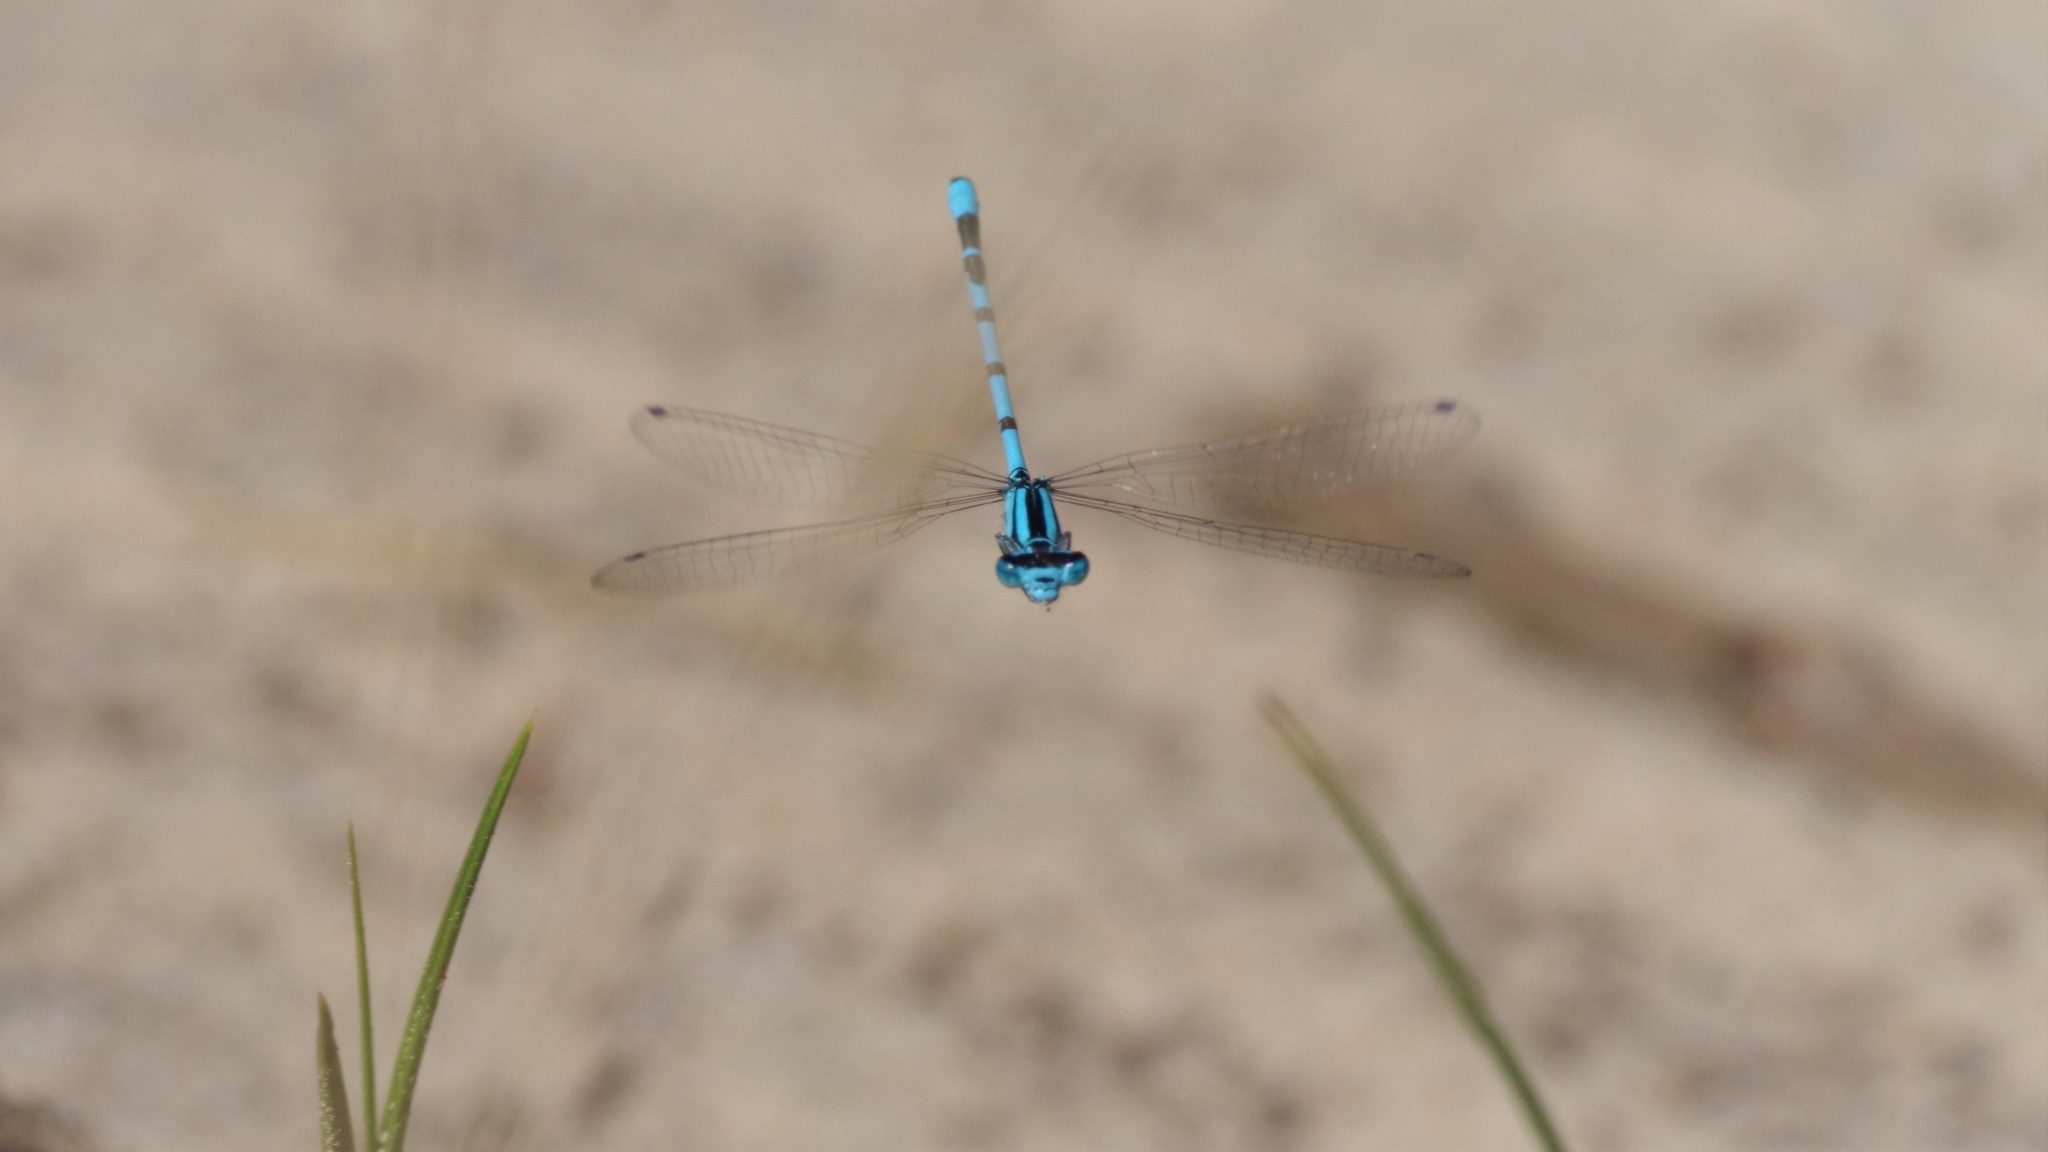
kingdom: Animalia
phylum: Arthropoda
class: Insecta
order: Odonata
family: Coenagrionidae
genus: Enallagma
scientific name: Enallagma cyathigerum
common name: Common blue damselfly
